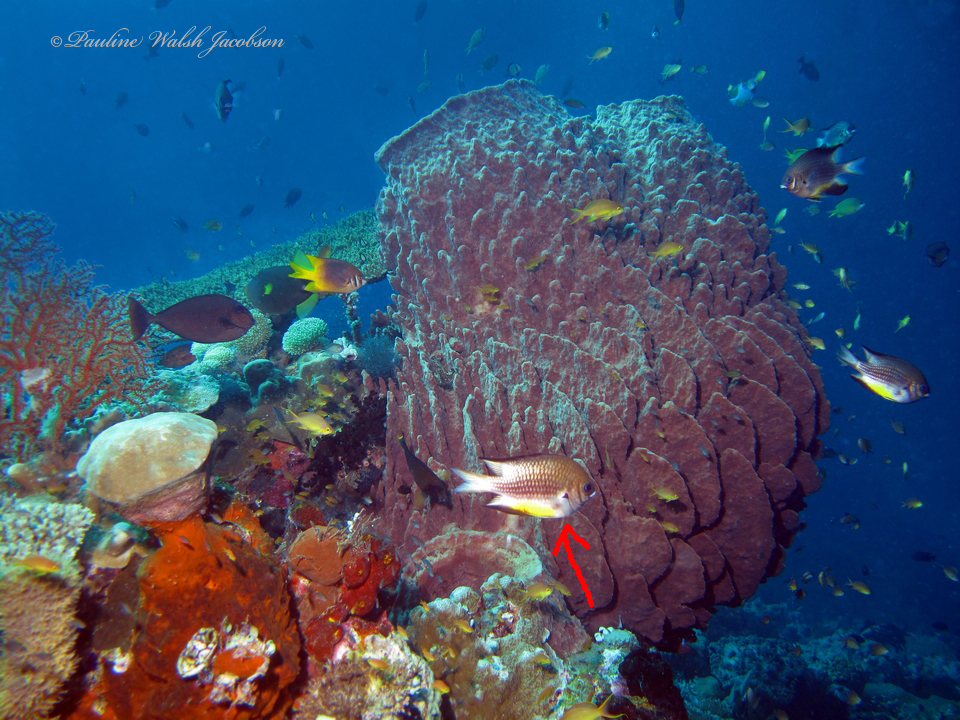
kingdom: Animalia
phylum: Chordata
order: Perciformes
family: Pomacentridae
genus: Amblyglyphidodon
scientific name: Amblyglyphidodon leucogaster
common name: White-belly damsel
